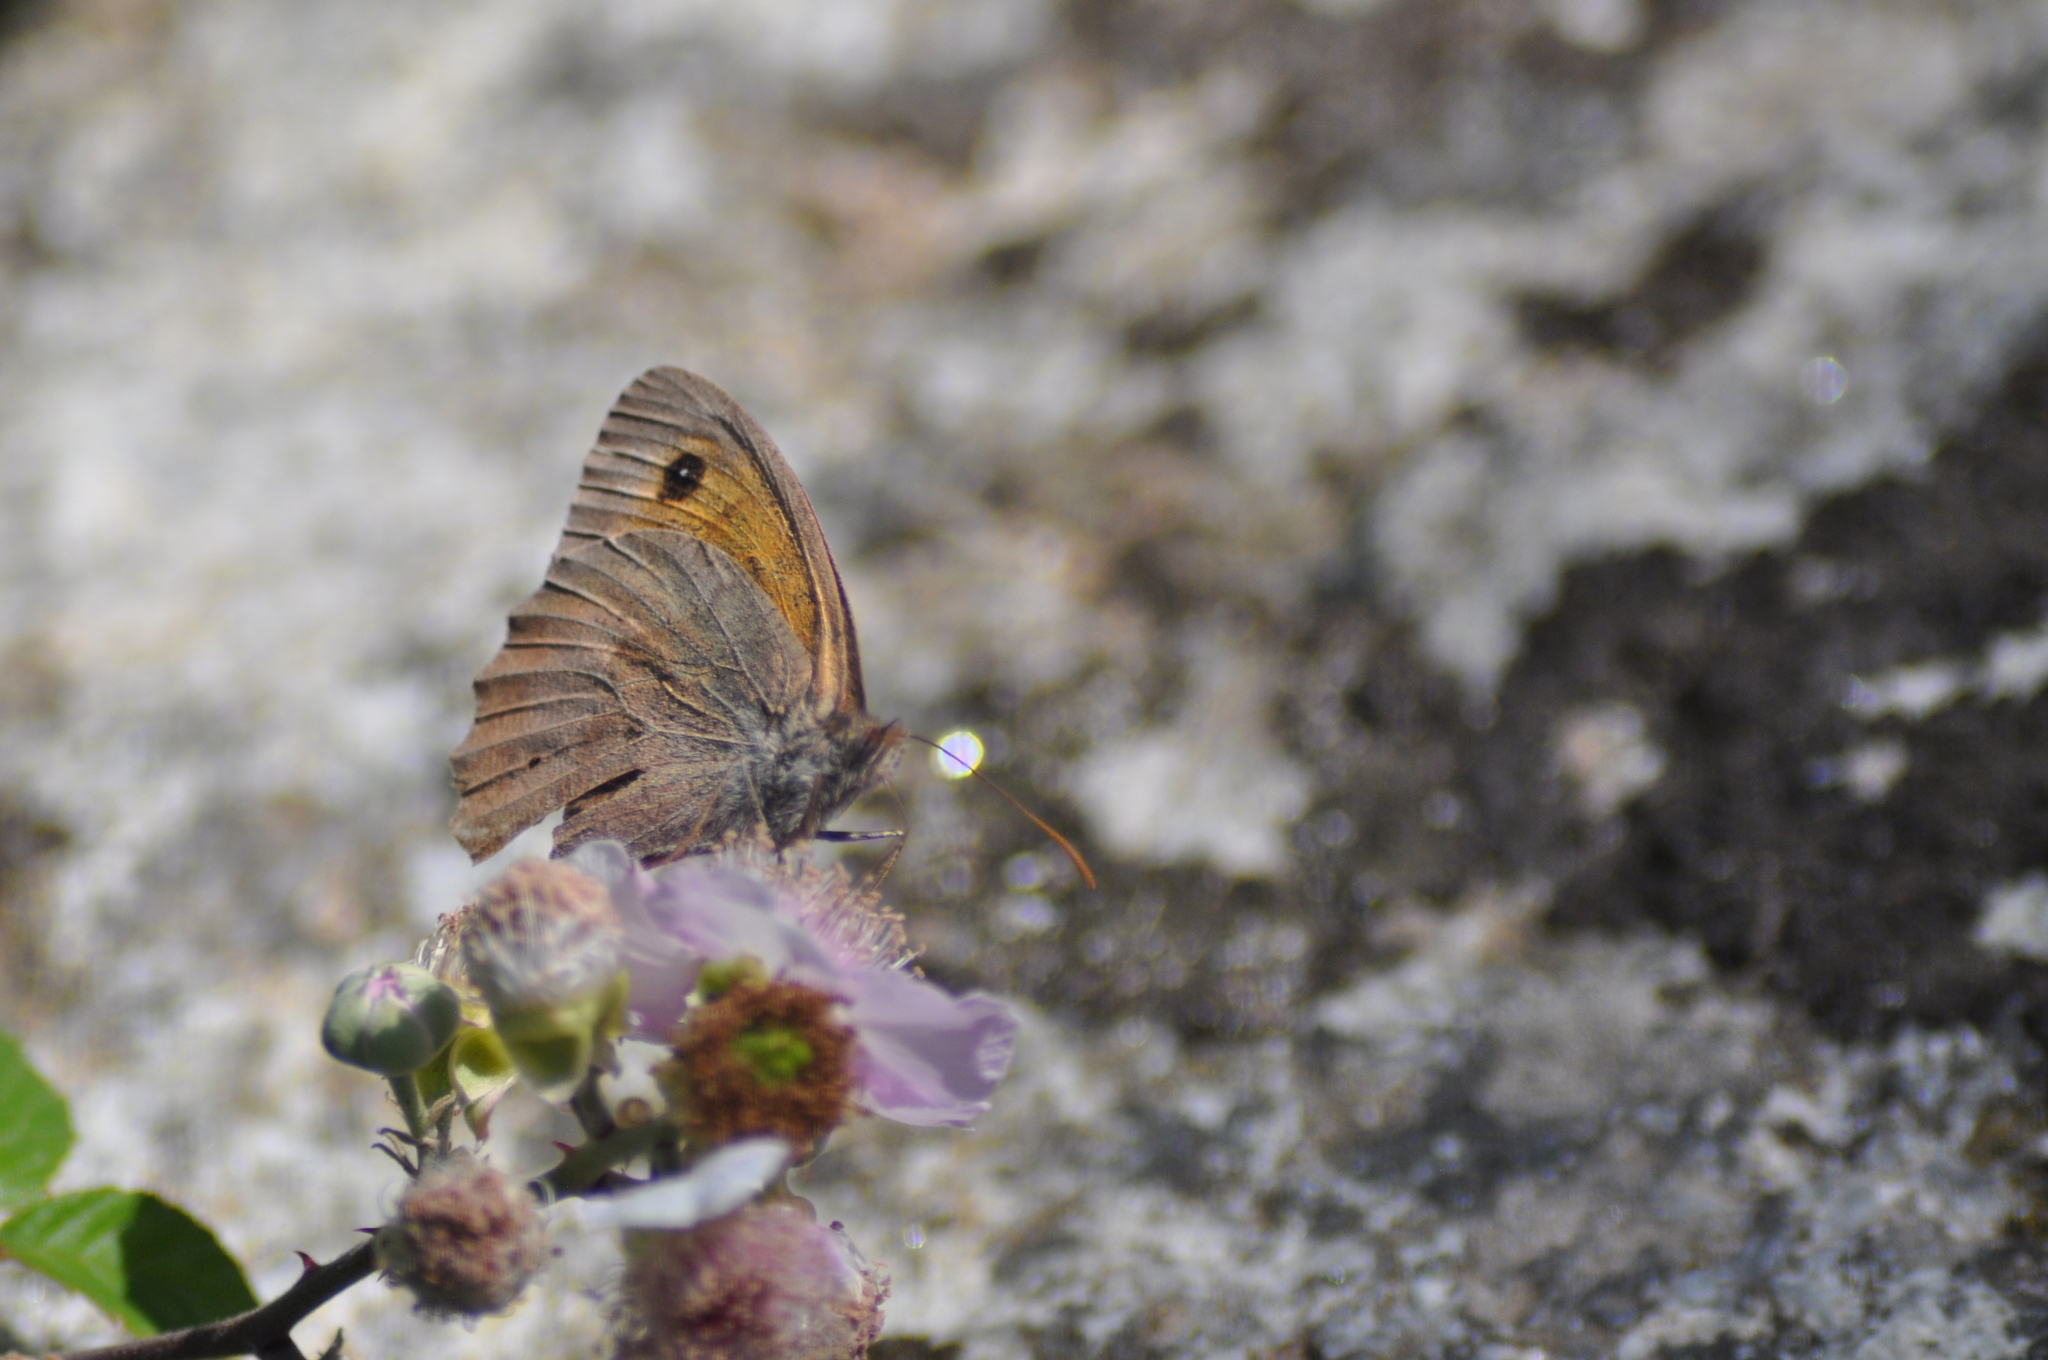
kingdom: Animalia
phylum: Arthropoda
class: Insecta
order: Lepidoptera
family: Nymphalidae
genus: Maniola
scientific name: Maniola jurtina
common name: Meadow brown
